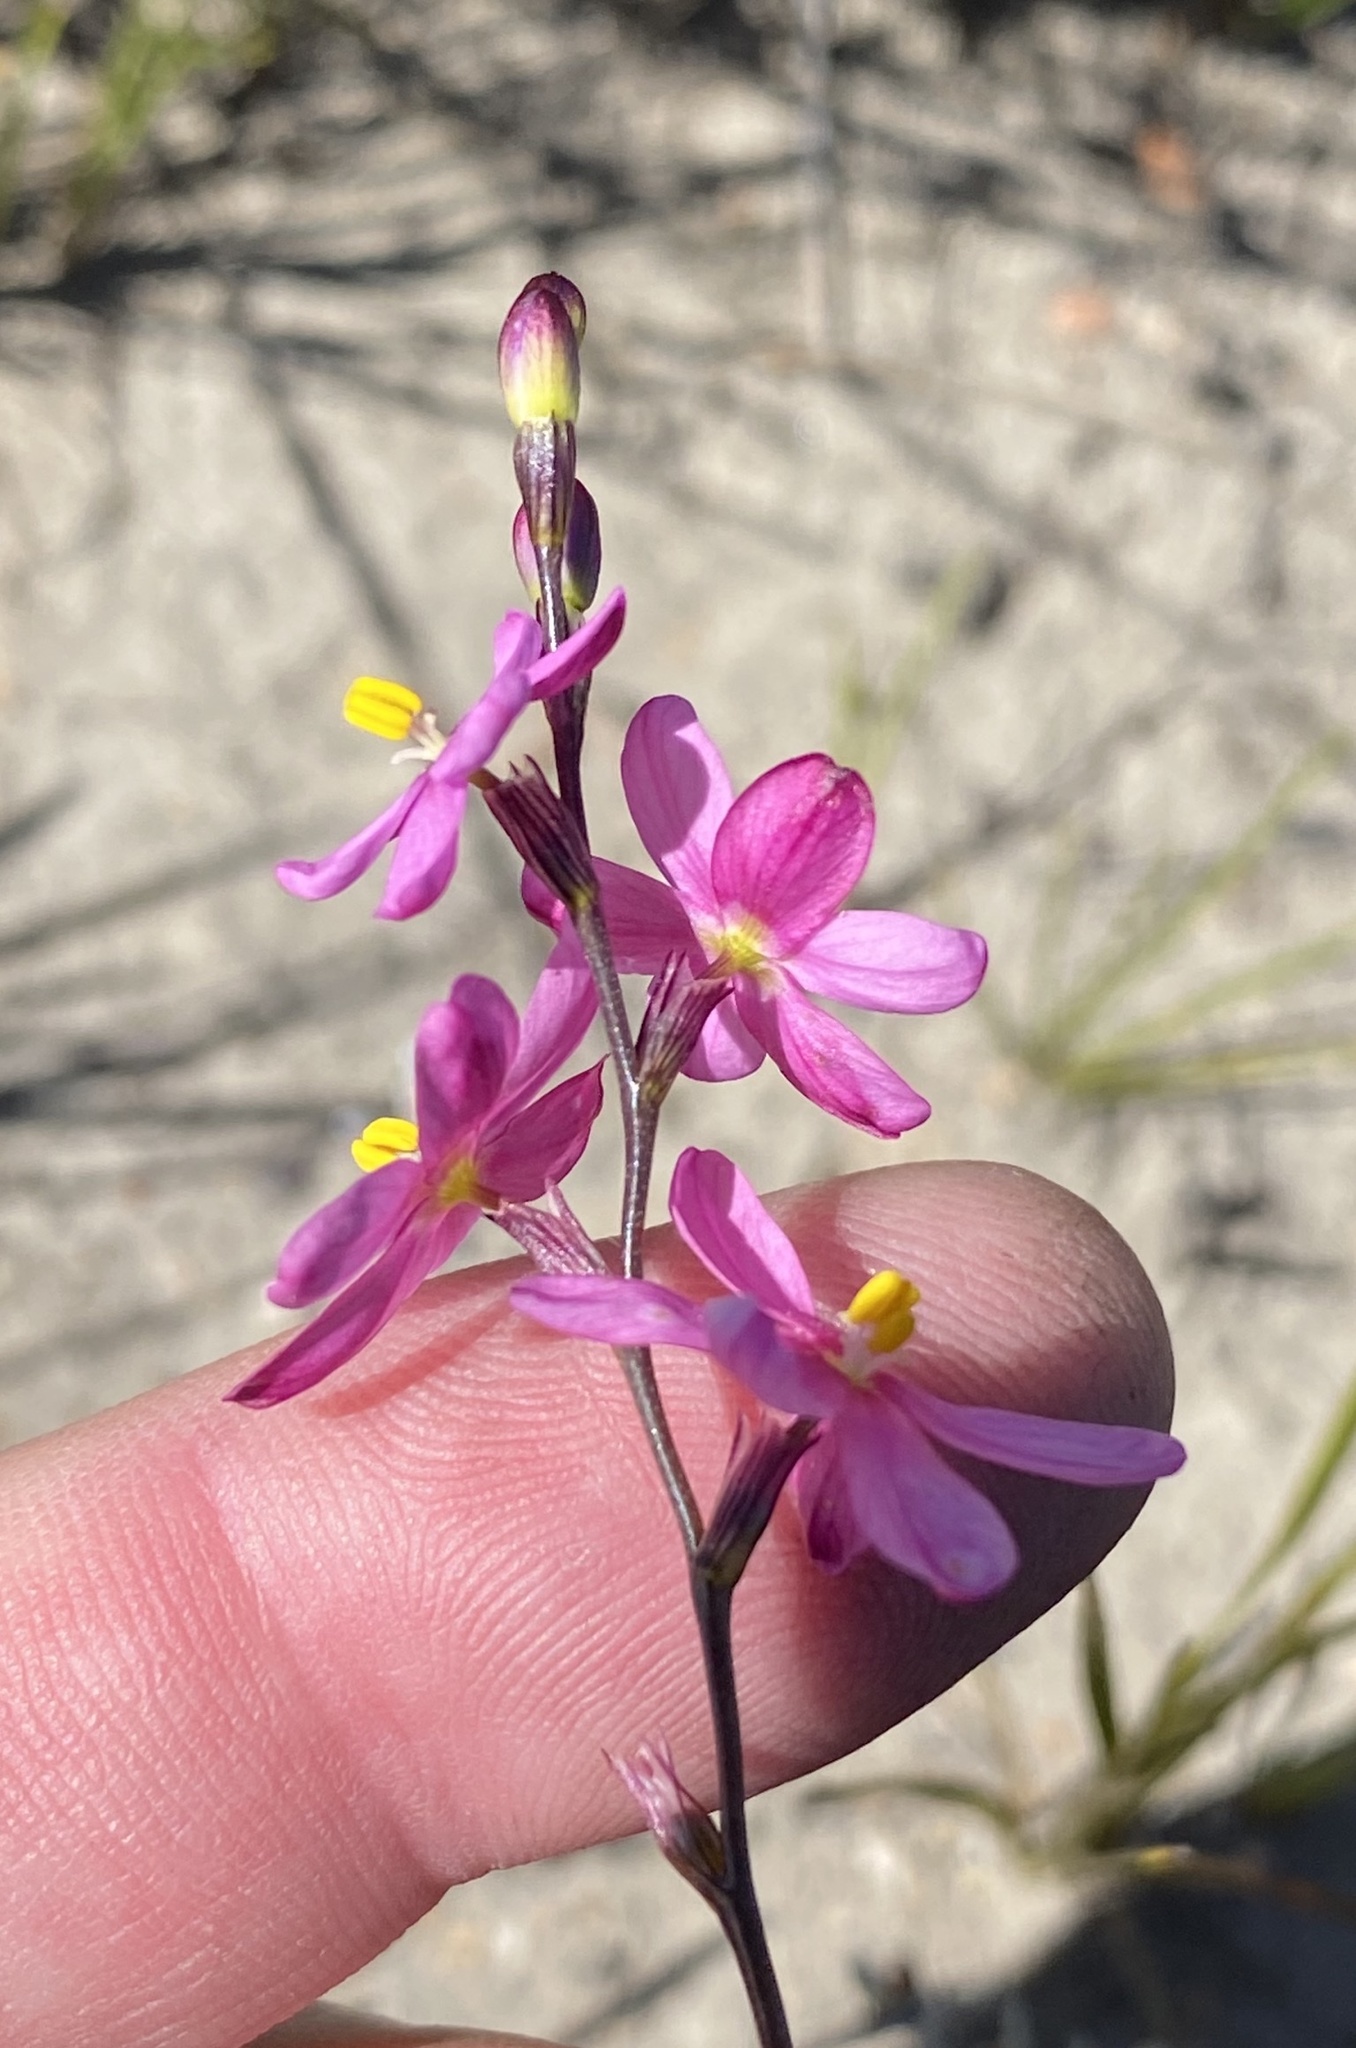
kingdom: Plantae
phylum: Tracheophyta
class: Liliopsida
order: Asparagales
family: Iridaceae
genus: Ixia
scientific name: Ixia stricta
